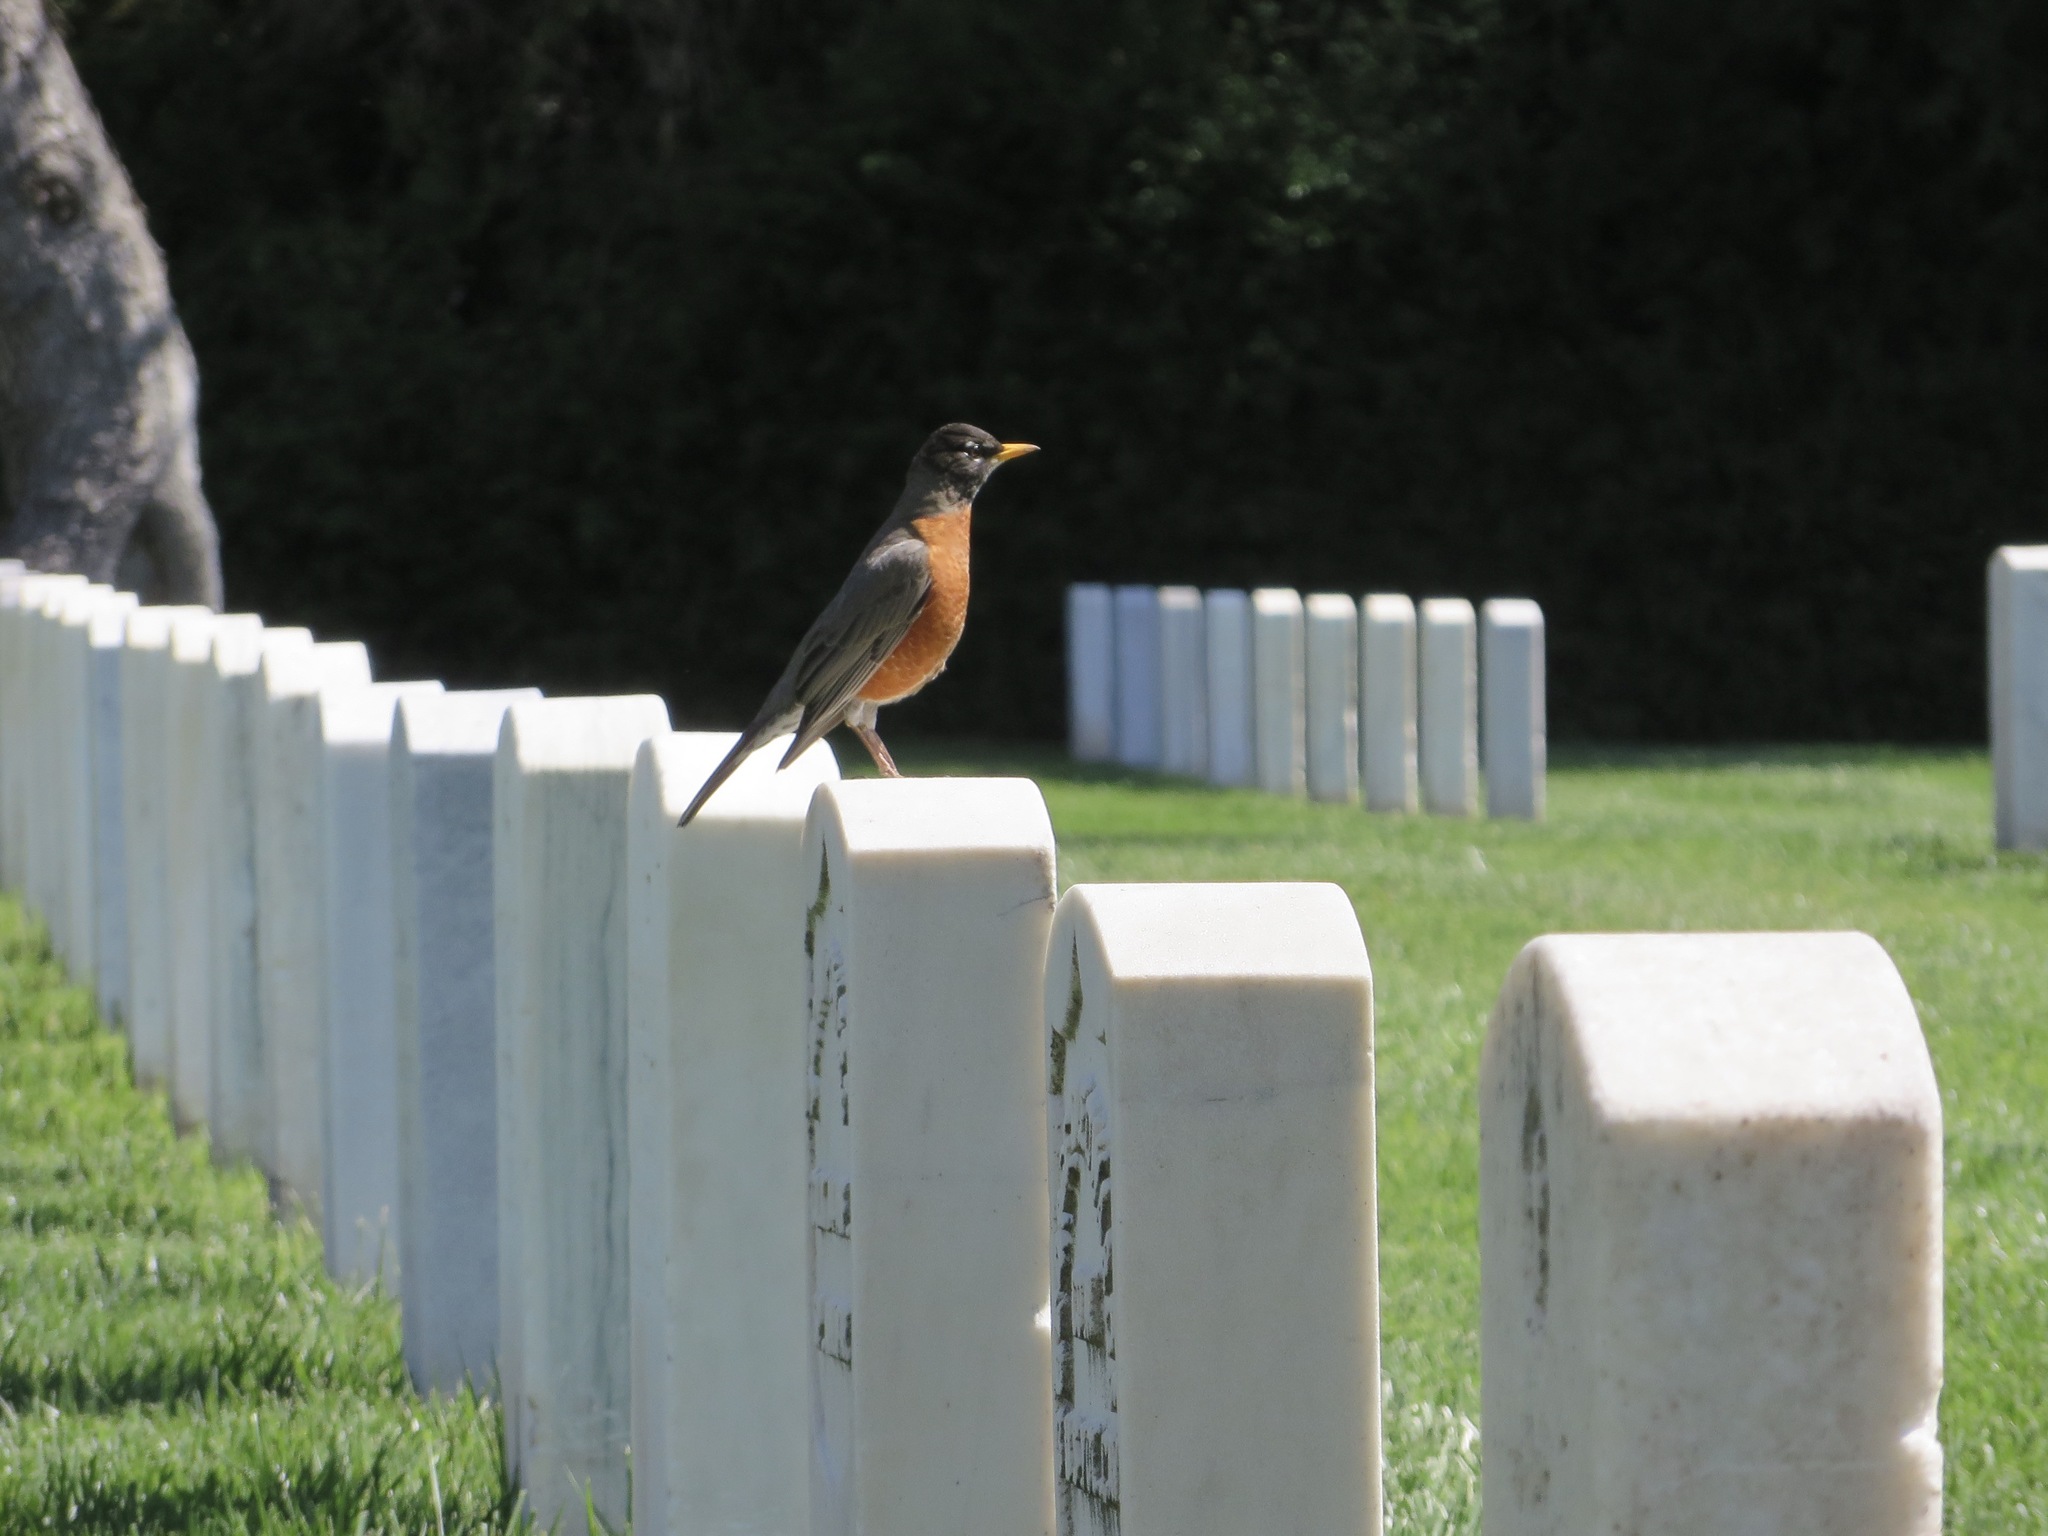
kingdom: Animalia
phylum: Chordata
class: Aves
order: Passeriformes
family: Turdidae
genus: Turdus
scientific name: Turdus migratorius
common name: American robin
